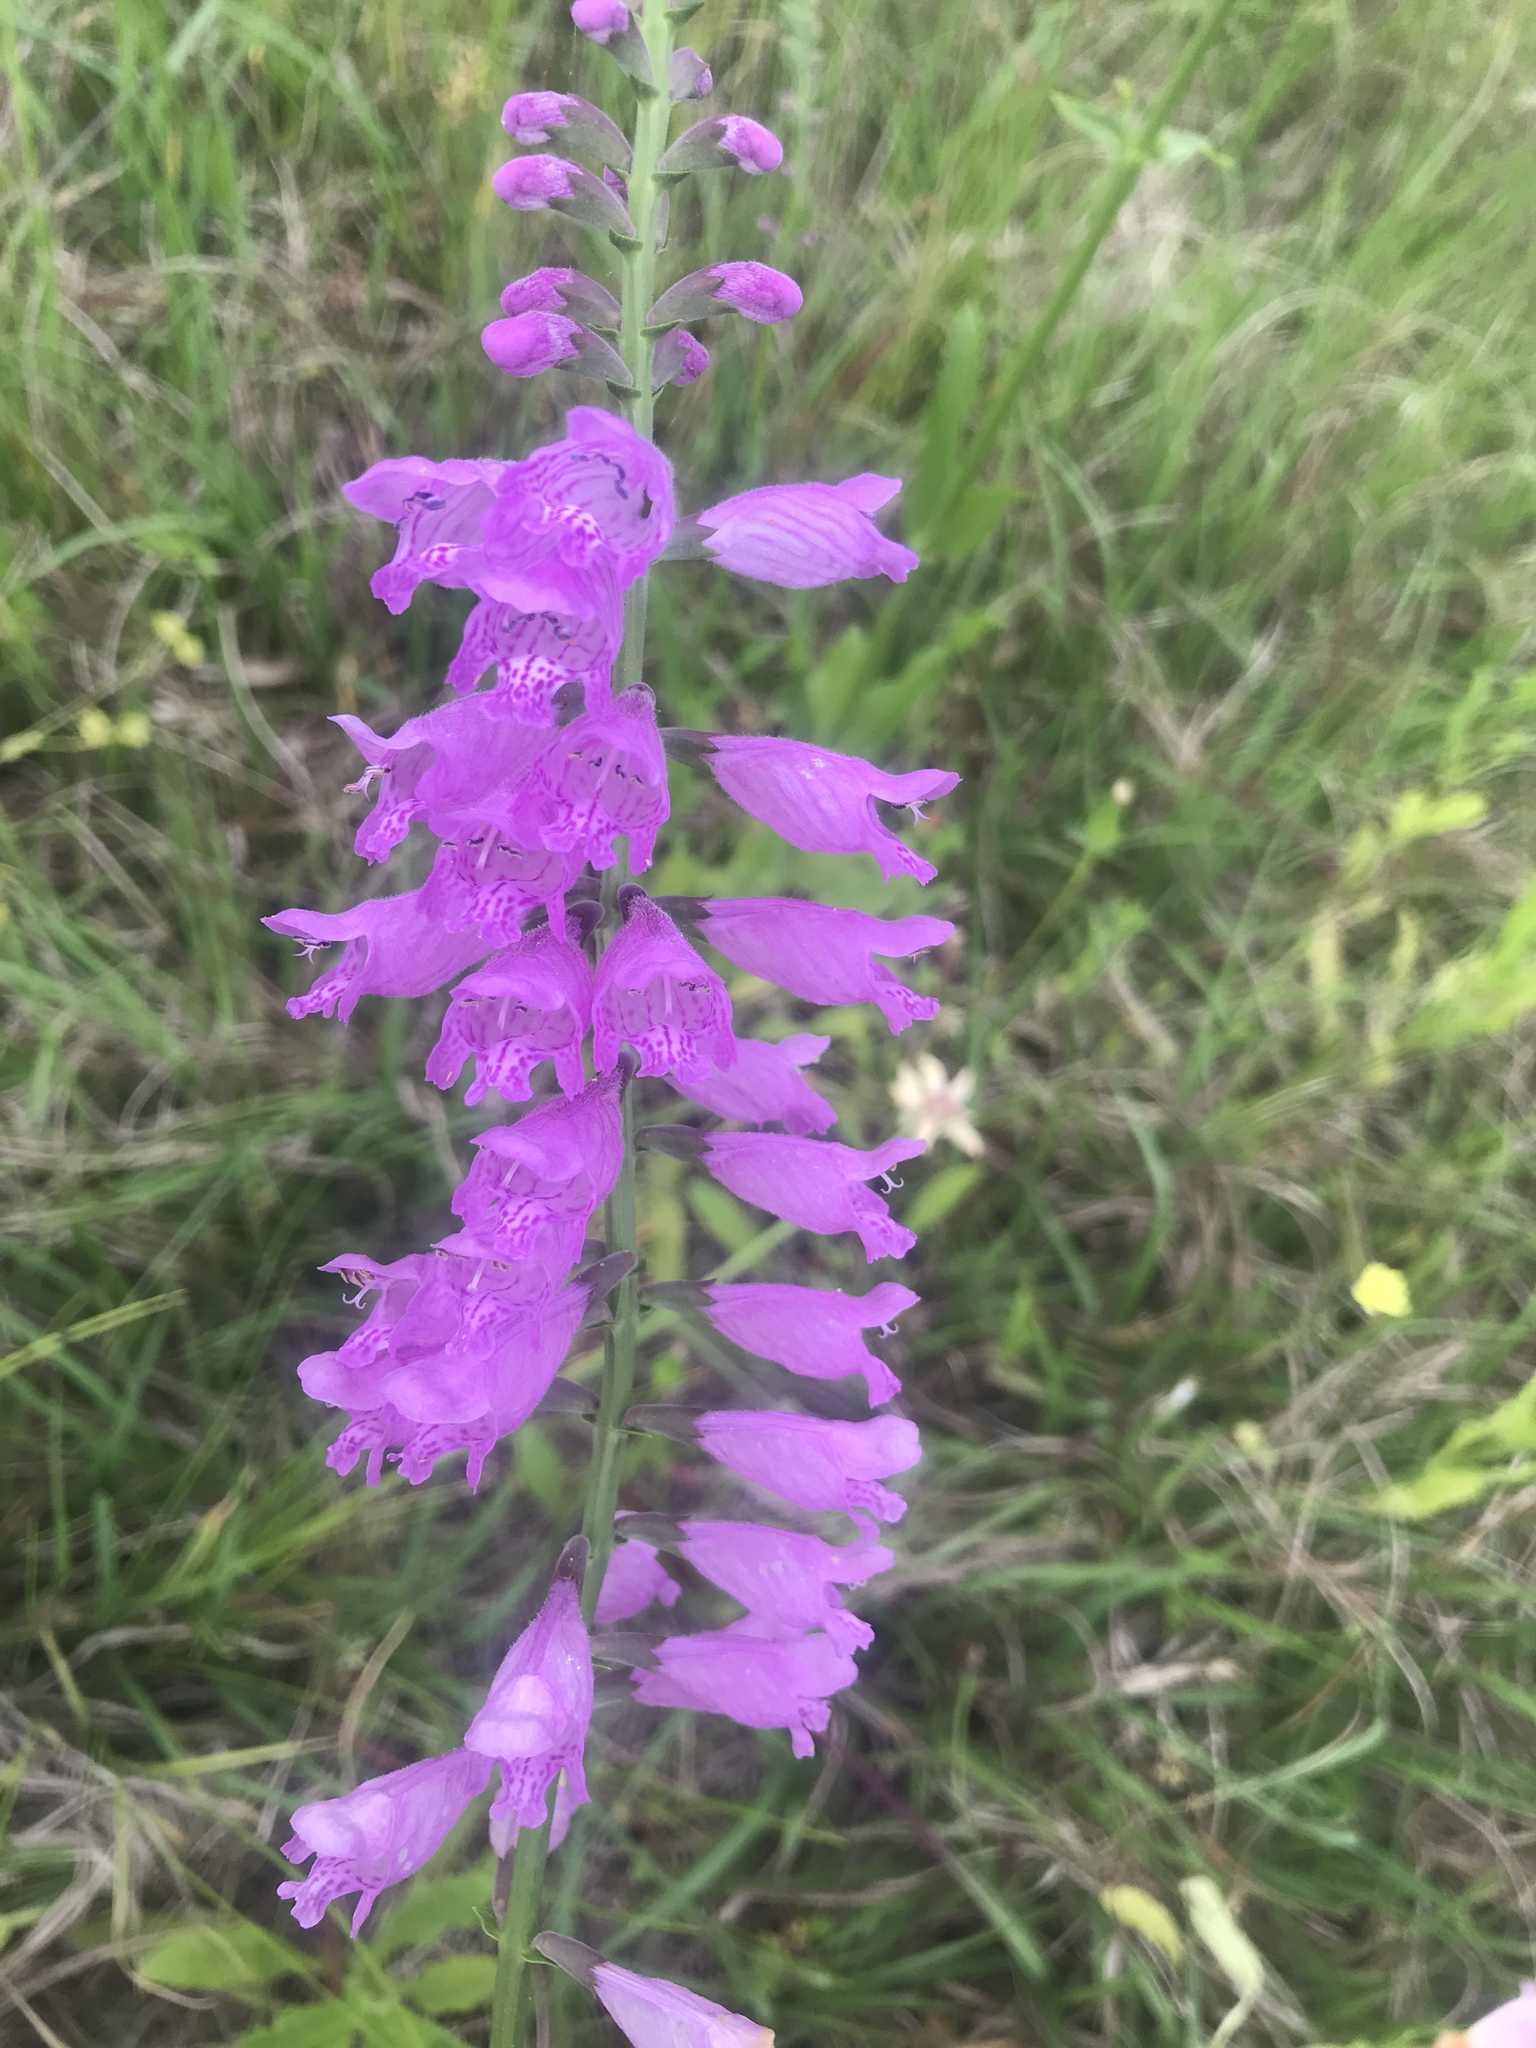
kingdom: Plantae
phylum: Tracheophyta
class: Magnoliopsida
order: Lamiales
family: Lamiaceae
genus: Physostegia
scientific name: Physostegia virginiana
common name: Obedient-plant
